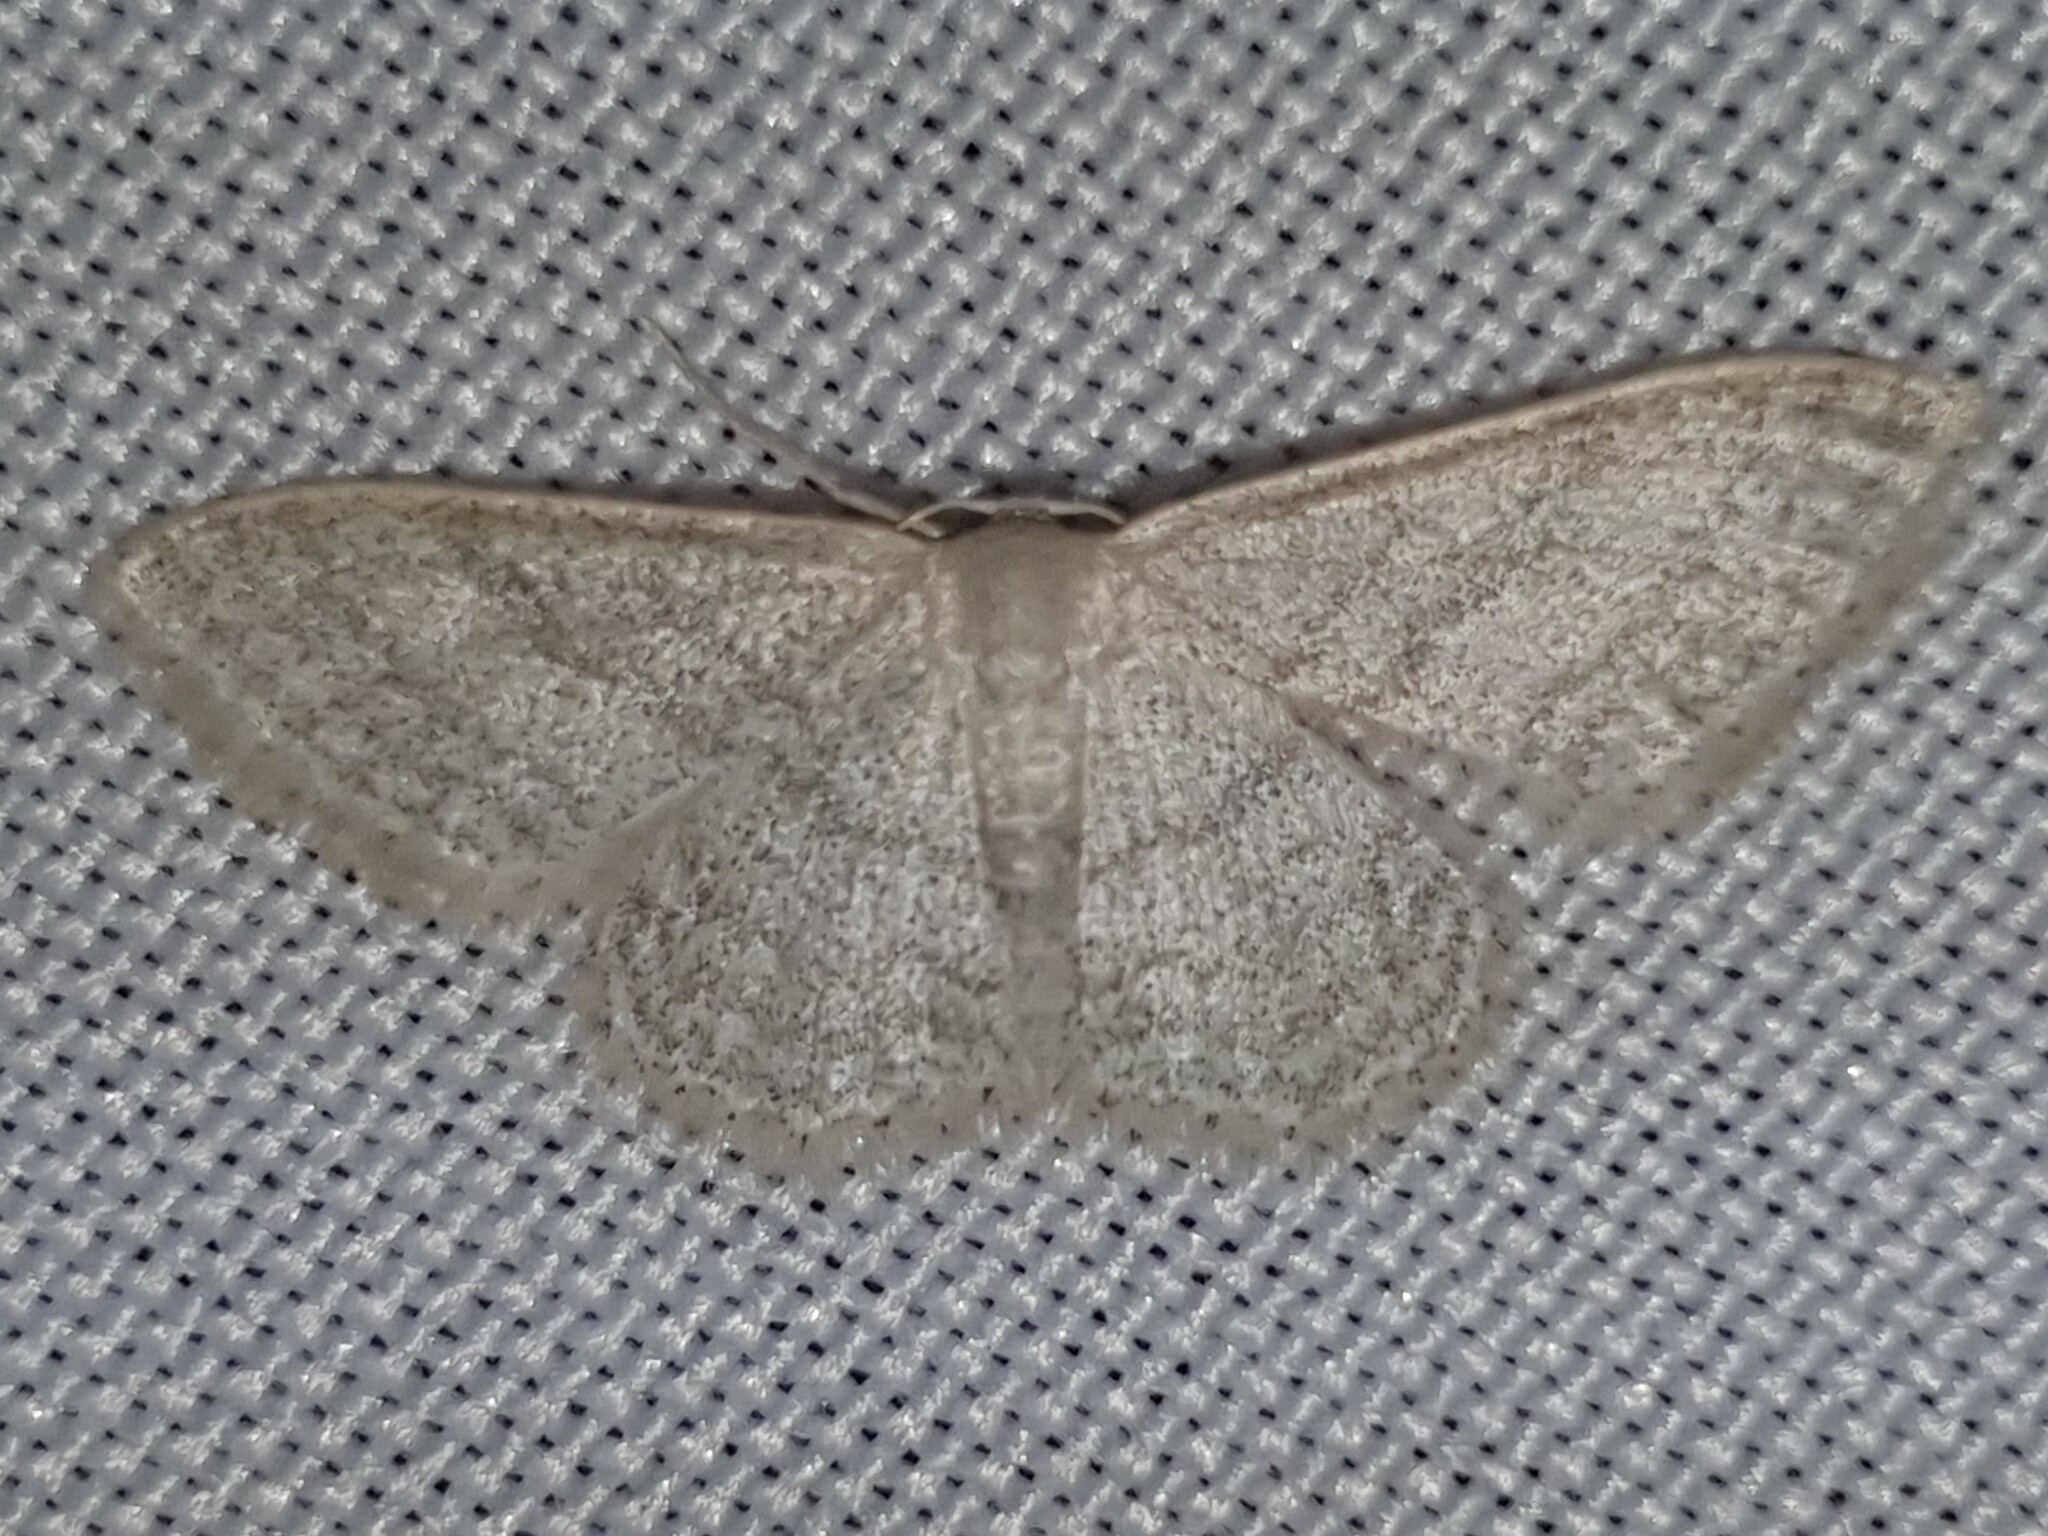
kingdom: Animalia
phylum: Arthropoda
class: Insecta
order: Lepidoptera
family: Geometridae
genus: Idaea
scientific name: Idaea subsericeata
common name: Satin wave
